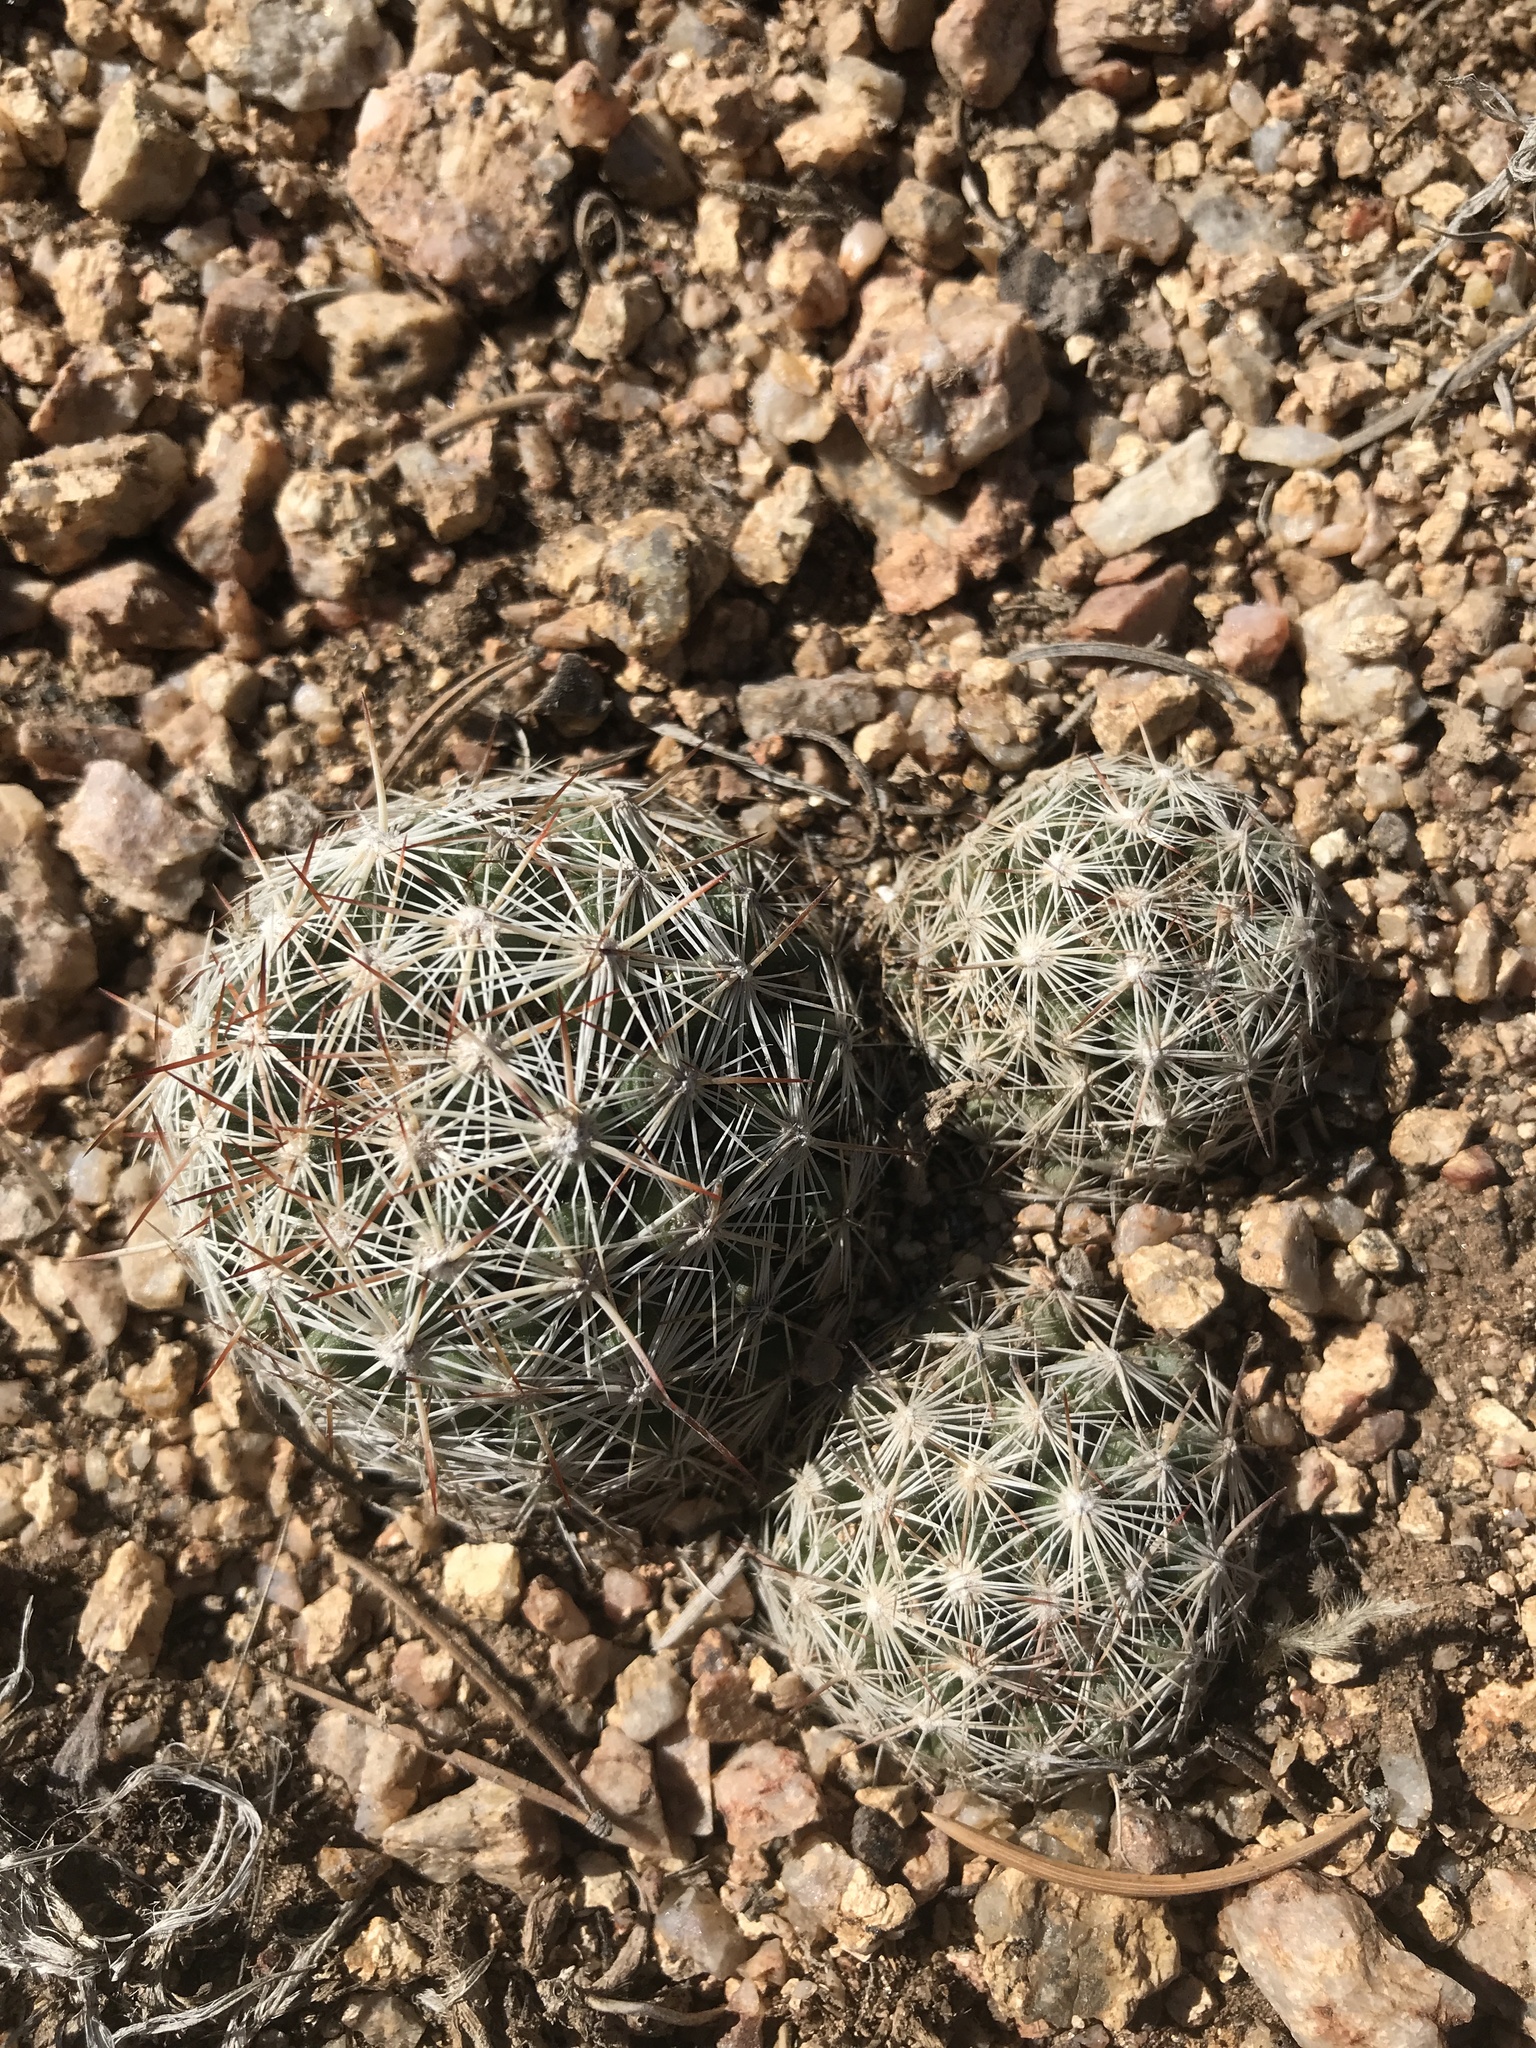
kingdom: Plantae
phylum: Tracheophyta
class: Magnoliopsida
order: Caryophyllales
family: Cactaceae
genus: Pelecyphora
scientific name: Pelecyphora vivipara
